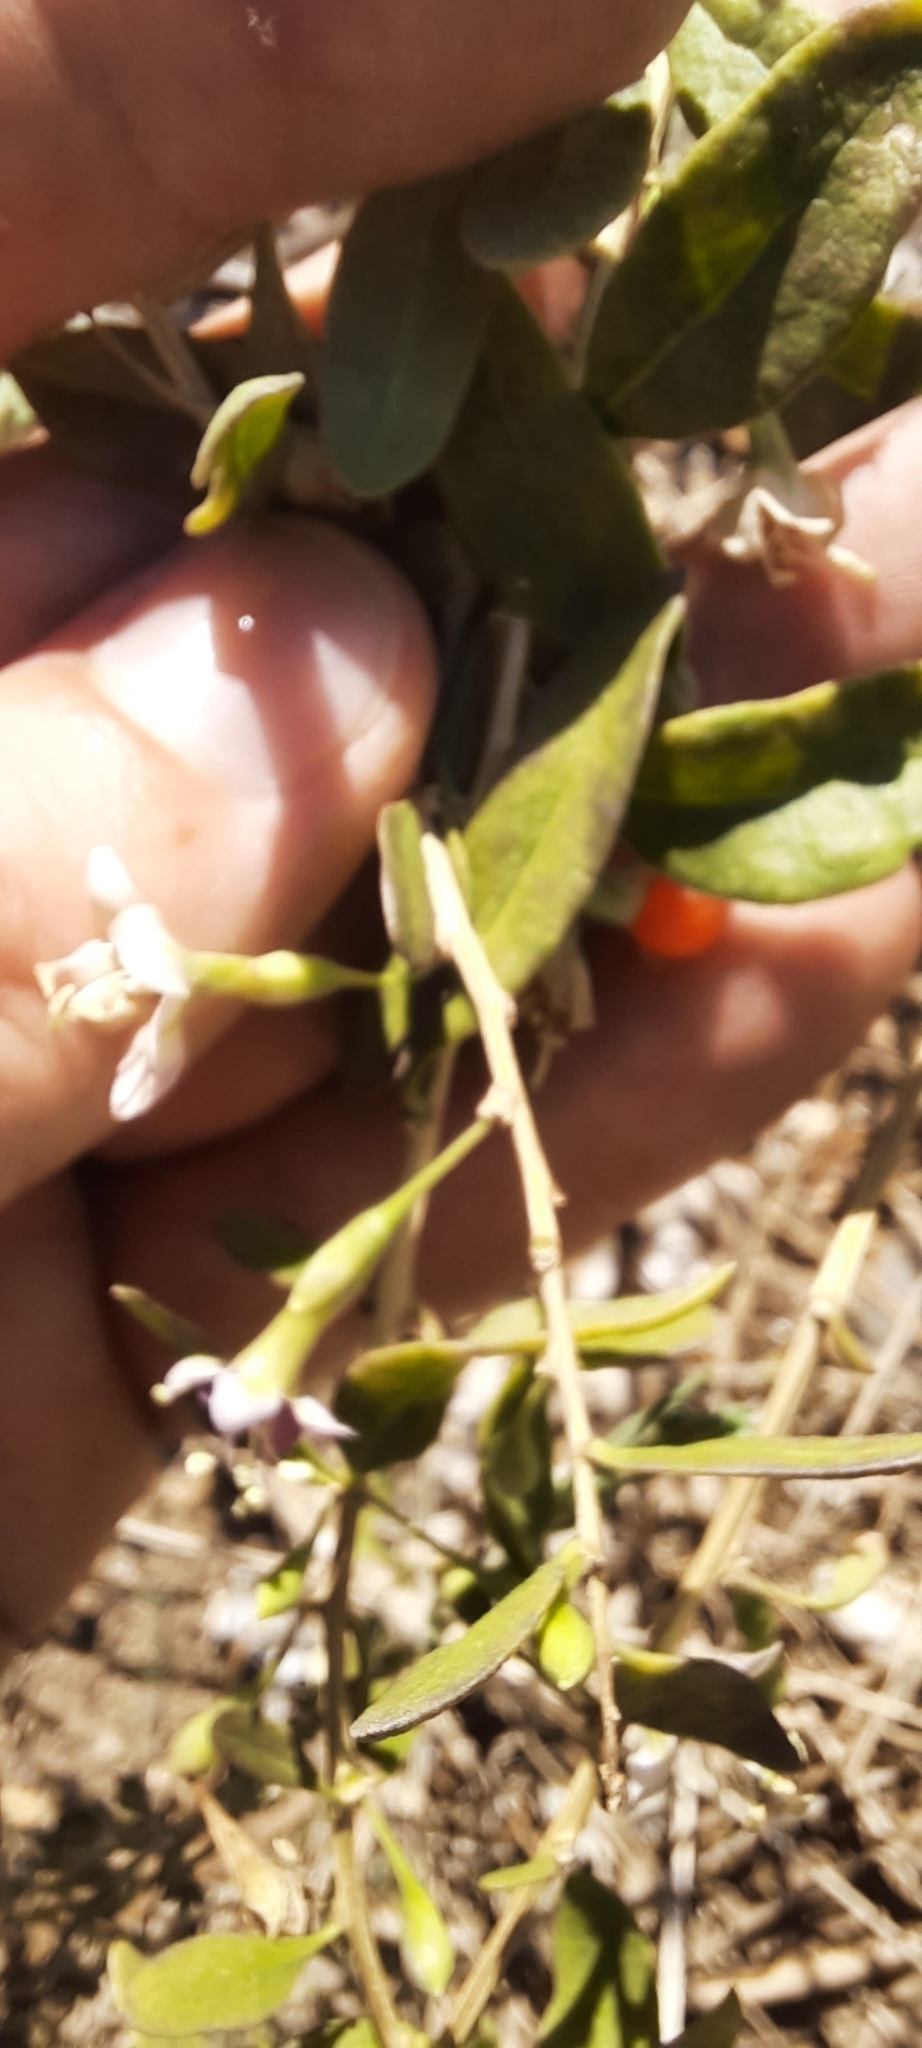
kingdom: Plantae
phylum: Tracheophyta
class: Magnoliopsida
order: Solanales
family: Solanaceae
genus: Lycium
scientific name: Lycium barbarum
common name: Duke of argyll's teaplant
